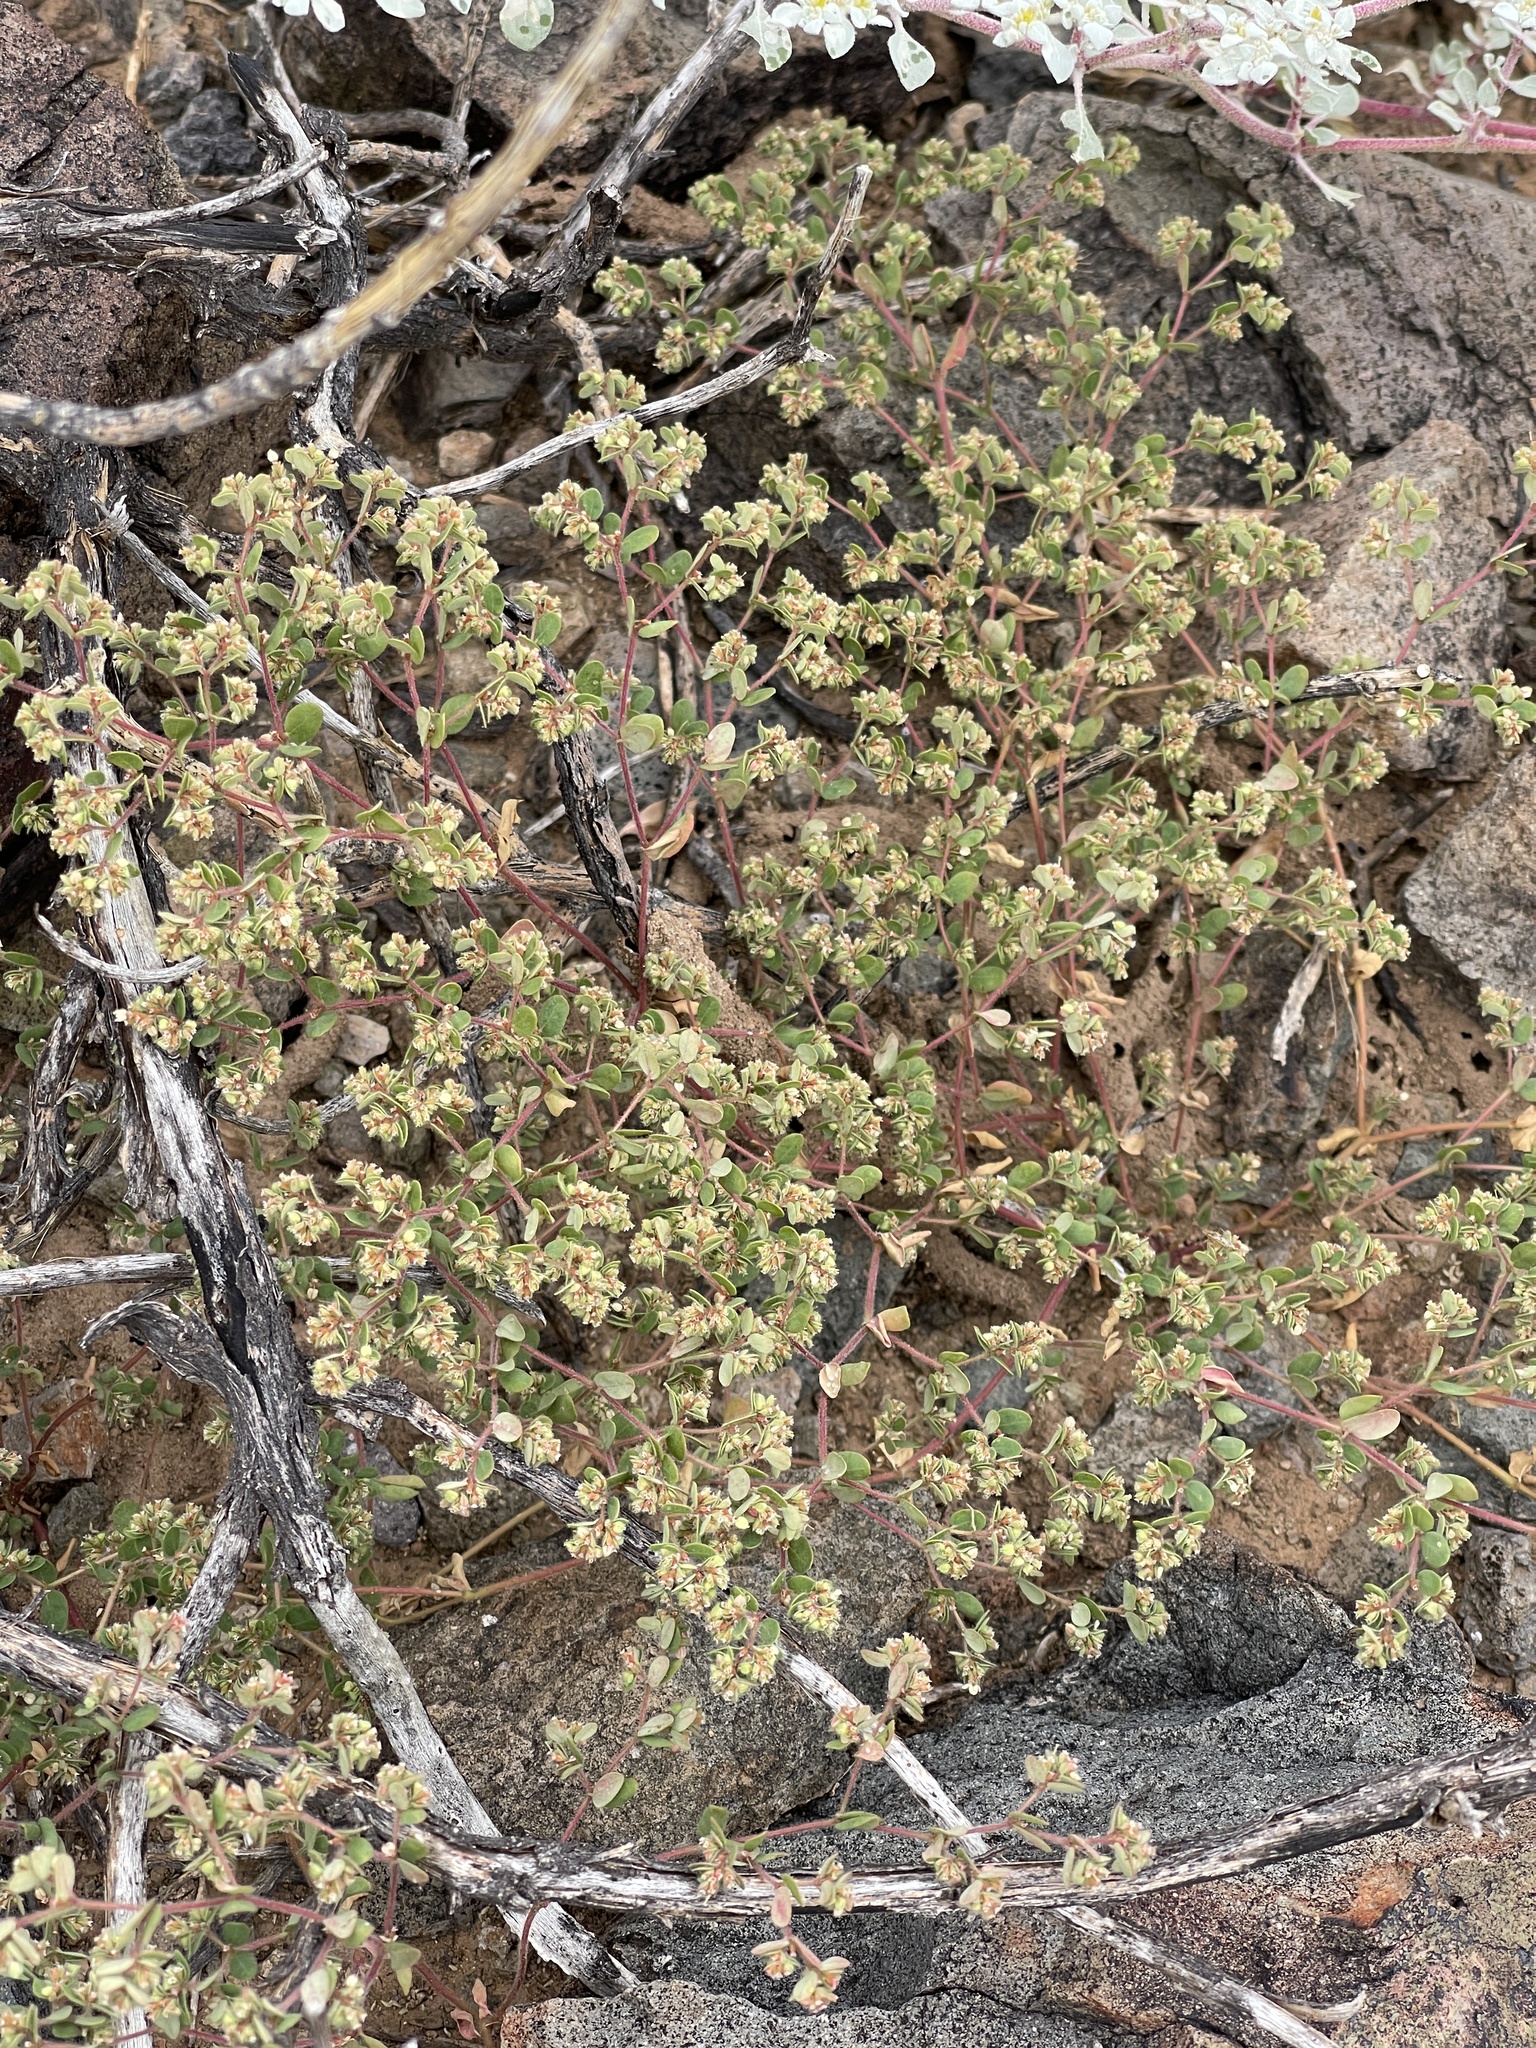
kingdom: Plantae
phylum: Tracheophyta
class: Magnoliopsida
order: Malpighiales
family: Euphorbiaceae
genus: Euphorbia
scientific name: Euphorbia setiloba
